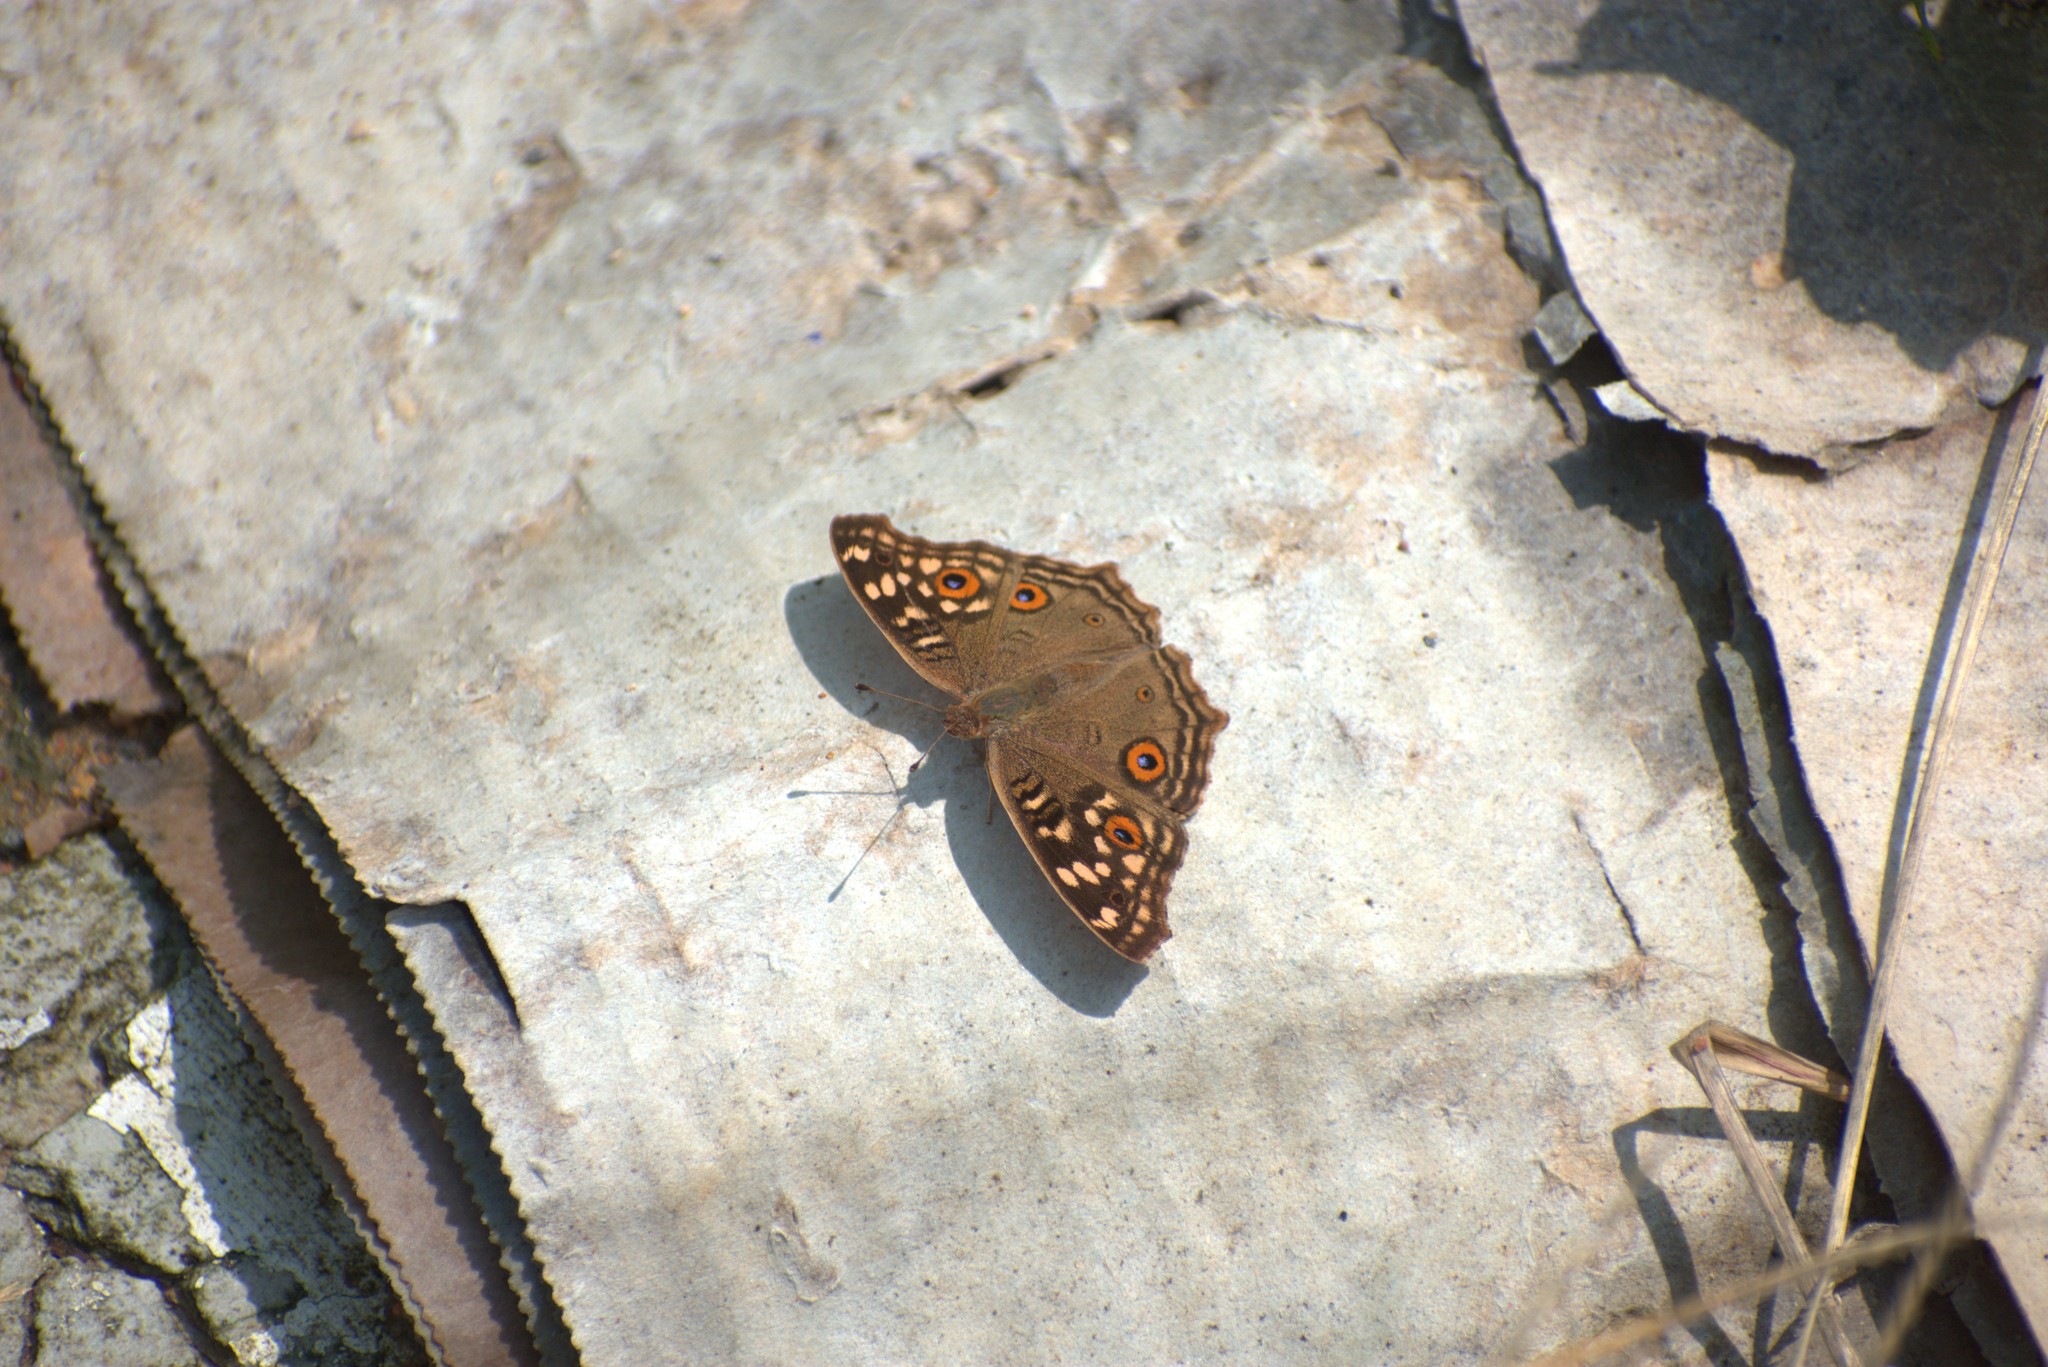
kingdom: Animalia
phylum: Arthropoda
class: Insecta
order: Lepidoptera
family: Nymphalidae
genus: Junonia
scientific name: Junonia lemonias
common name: Lemon pansy
